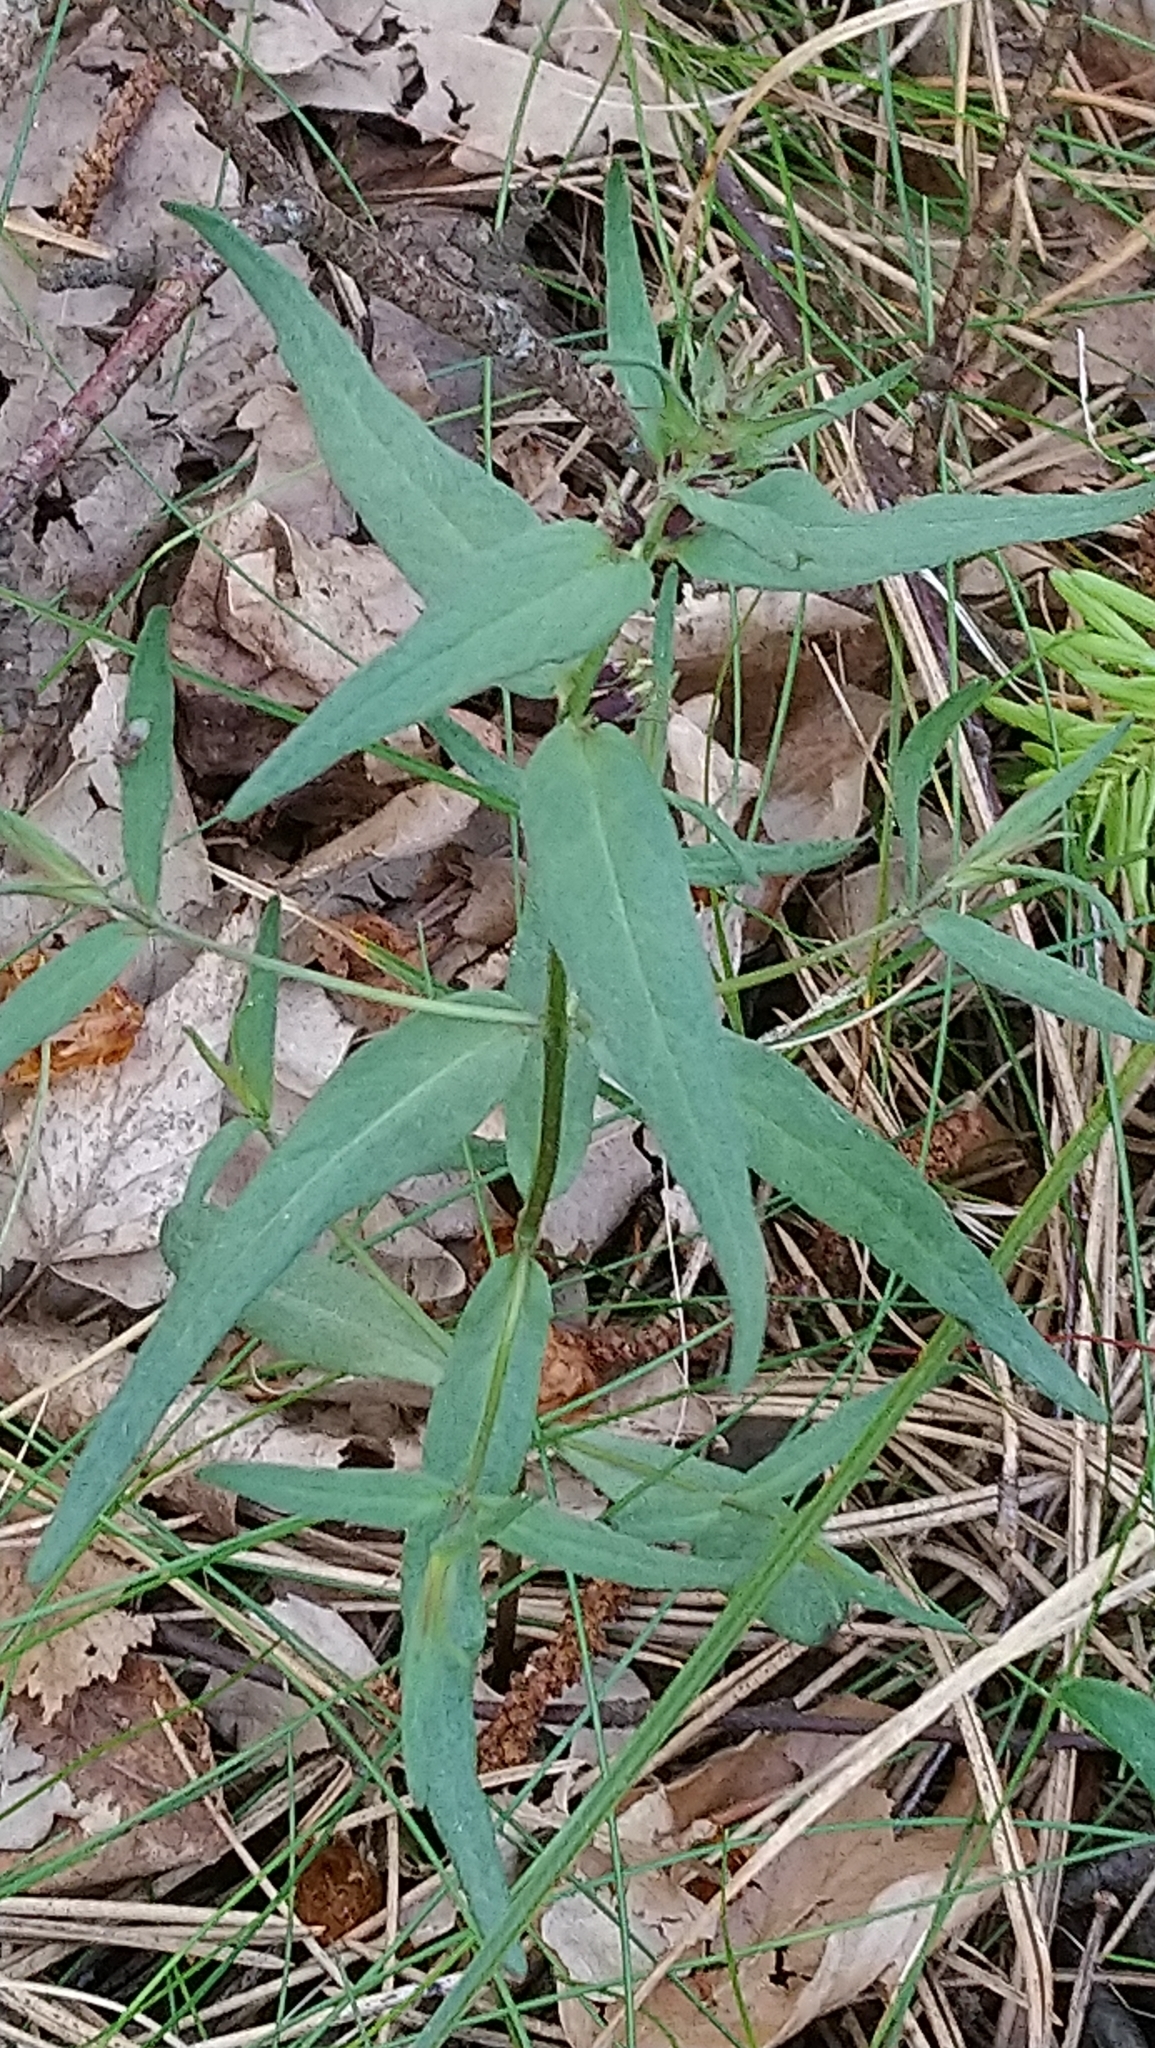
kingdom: Plantae
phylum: Tracheophyta
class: Magnoliopsida
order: Lamiales
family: Orobanchaceae
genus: Melampyrum
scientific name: Melampyrum pratense
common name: Common cow-wheat
